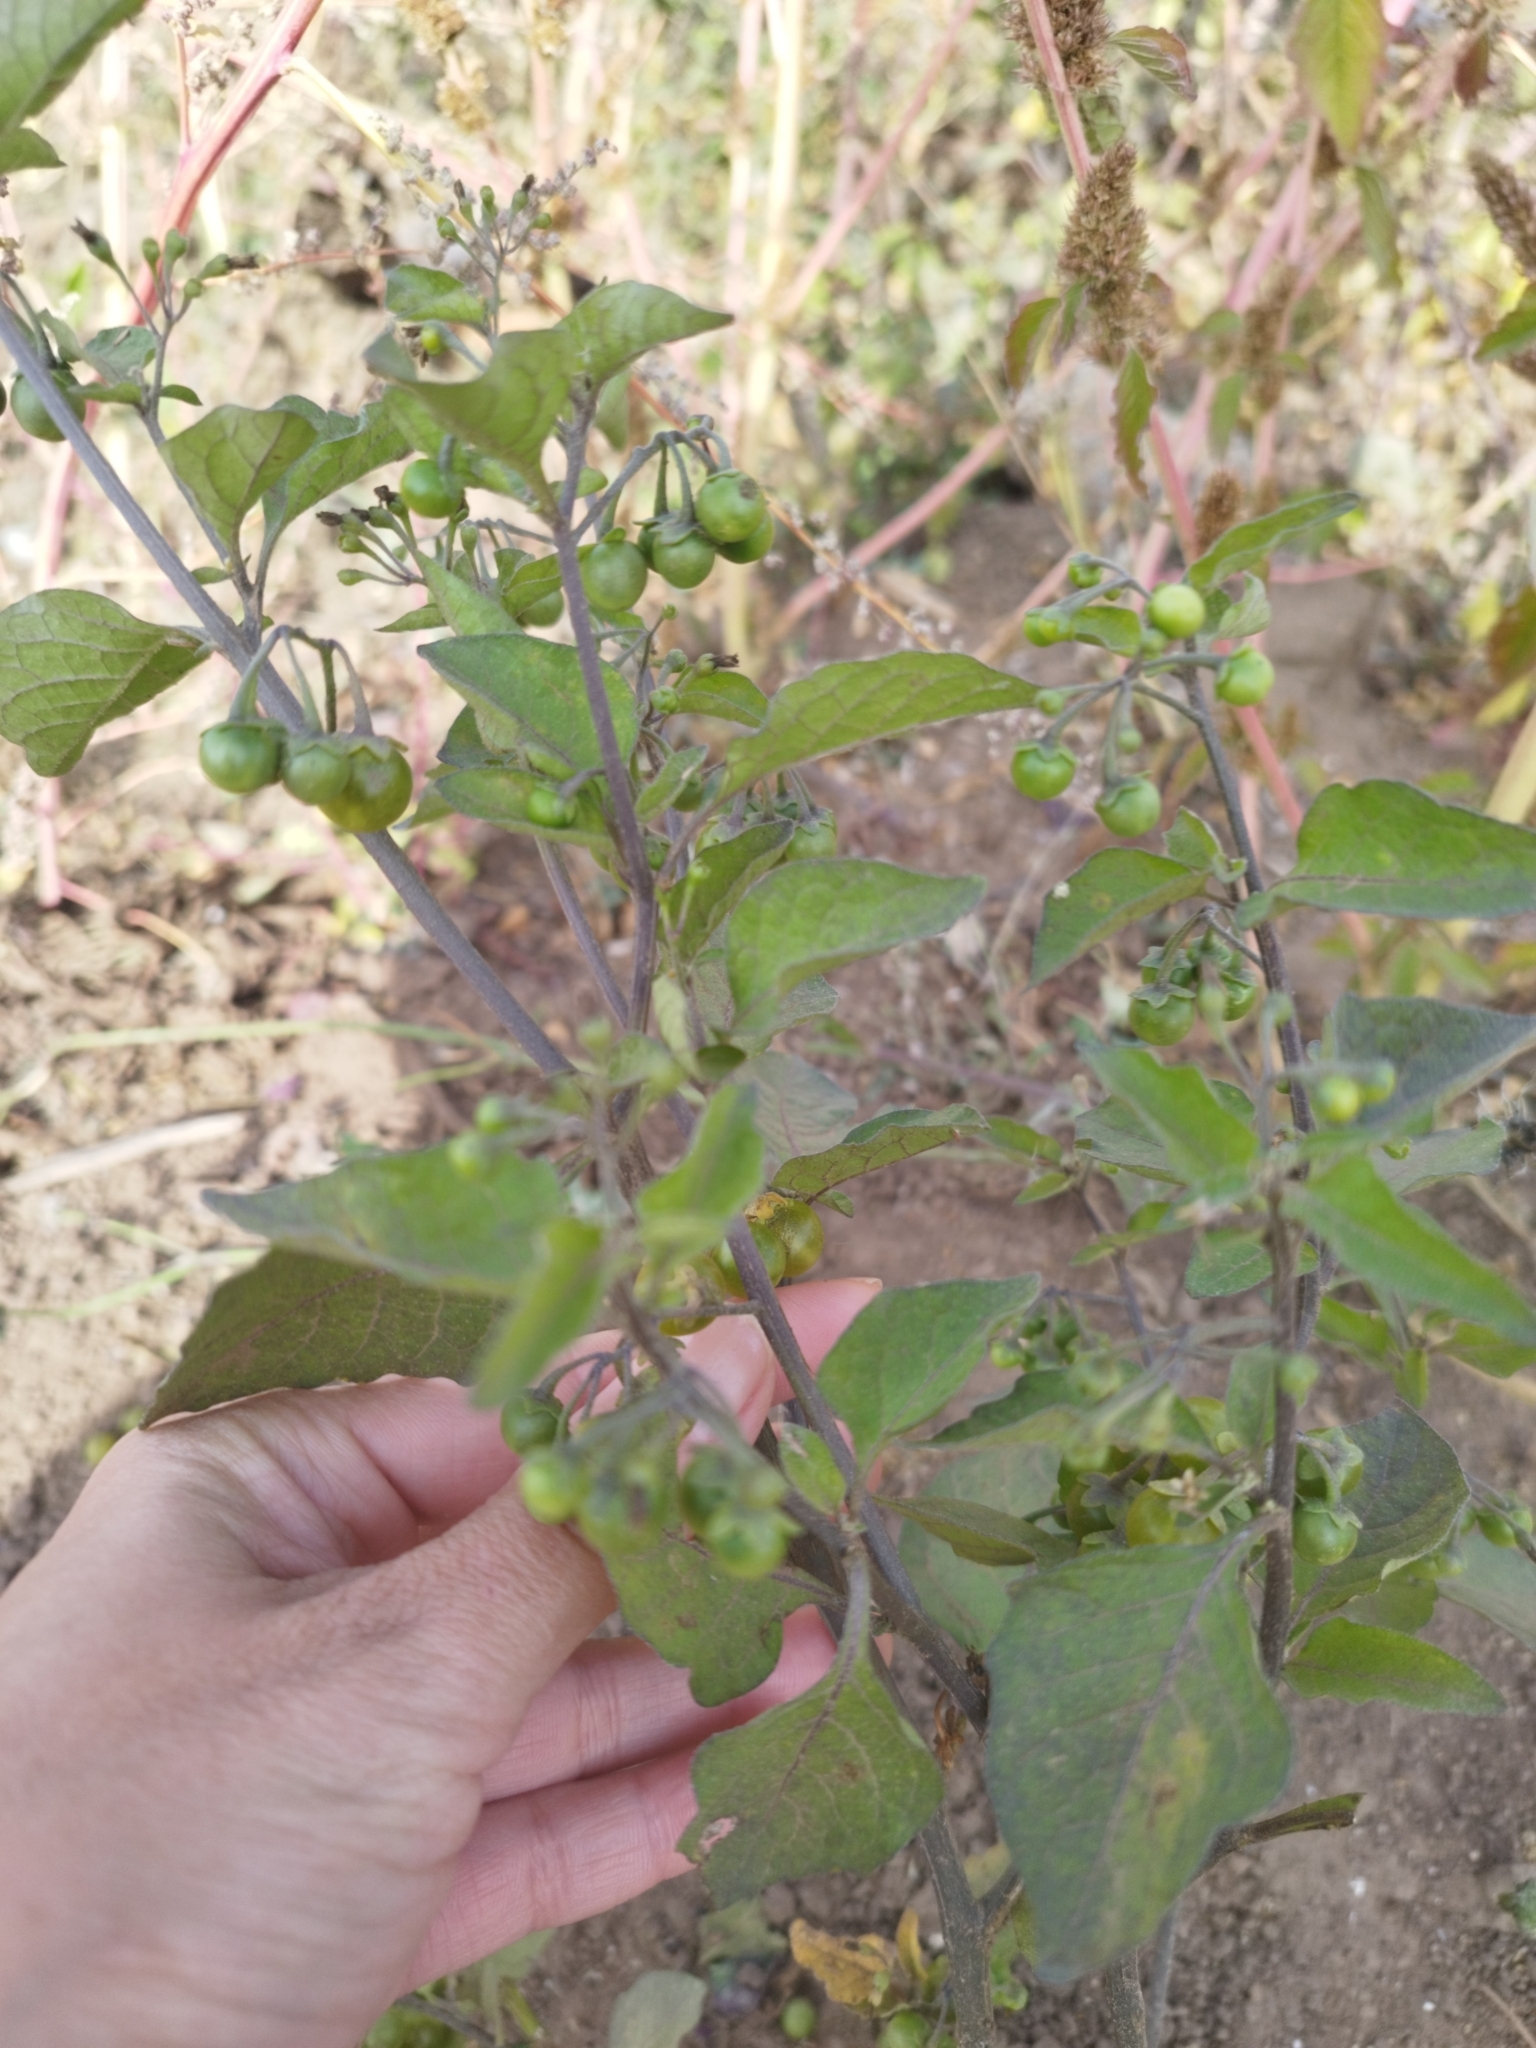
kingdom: Plantae
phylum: Tracheophyta
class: Magnoliopsida
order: Solanales
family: Solanaceae
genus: Solanum
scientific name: Solanum nigrum
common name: Black nightshade
